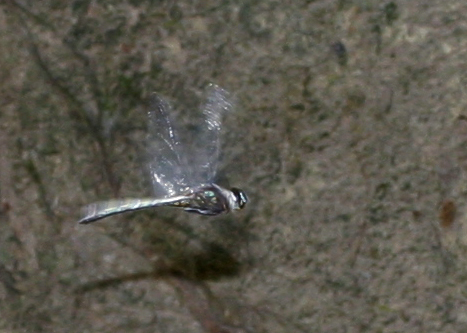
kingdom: Animalia
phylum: Arthropoda
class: Insecta
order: Odonata
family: Libellulidae
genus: Zygonyx
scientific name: Zygonyx iris
